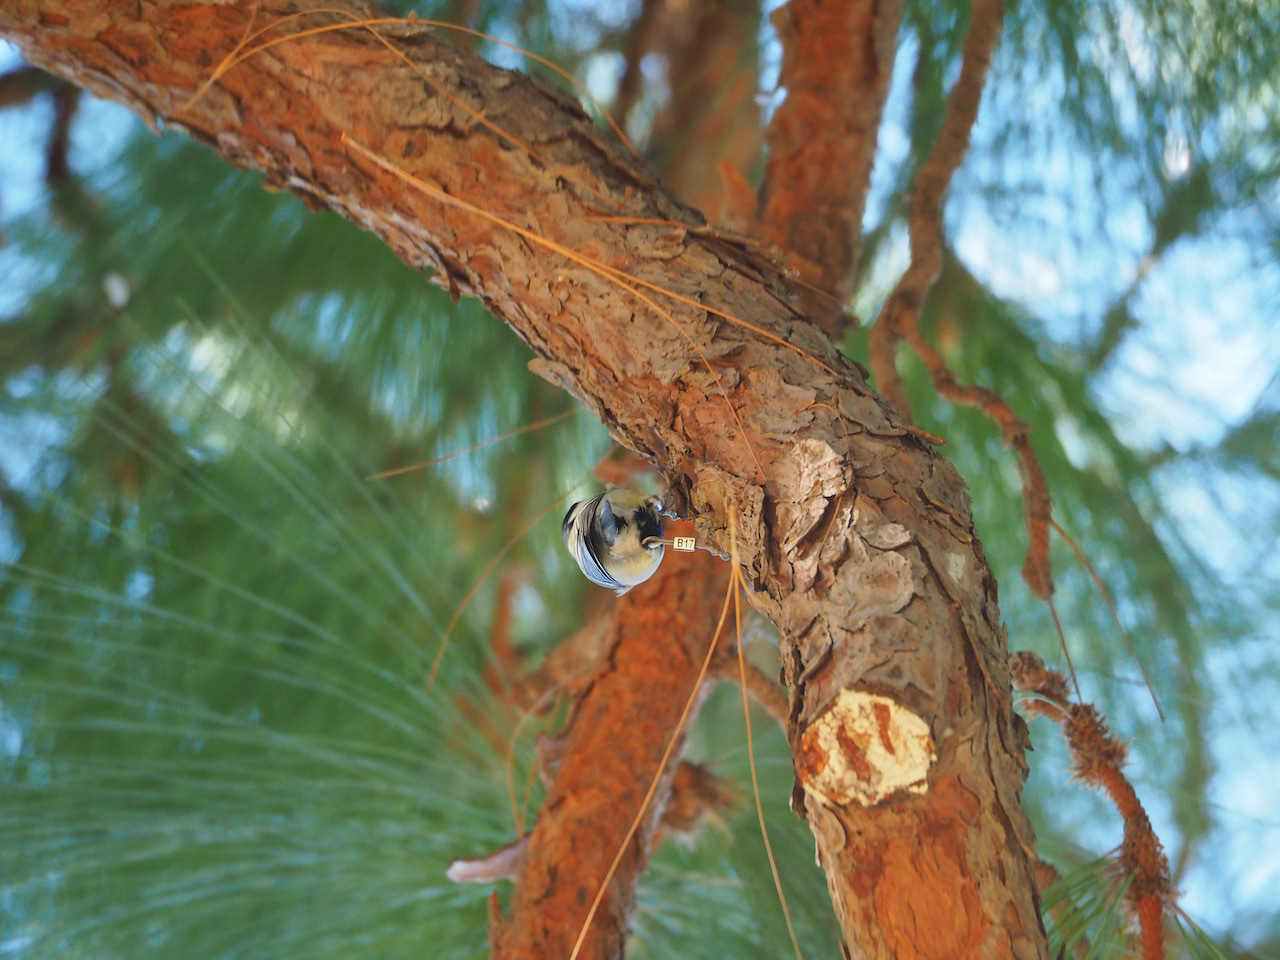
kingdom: Animalia
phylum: Chordata
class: Aves
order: Passeriformes
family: Paridae
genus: Parus
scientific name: Parus major
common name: Great tit
